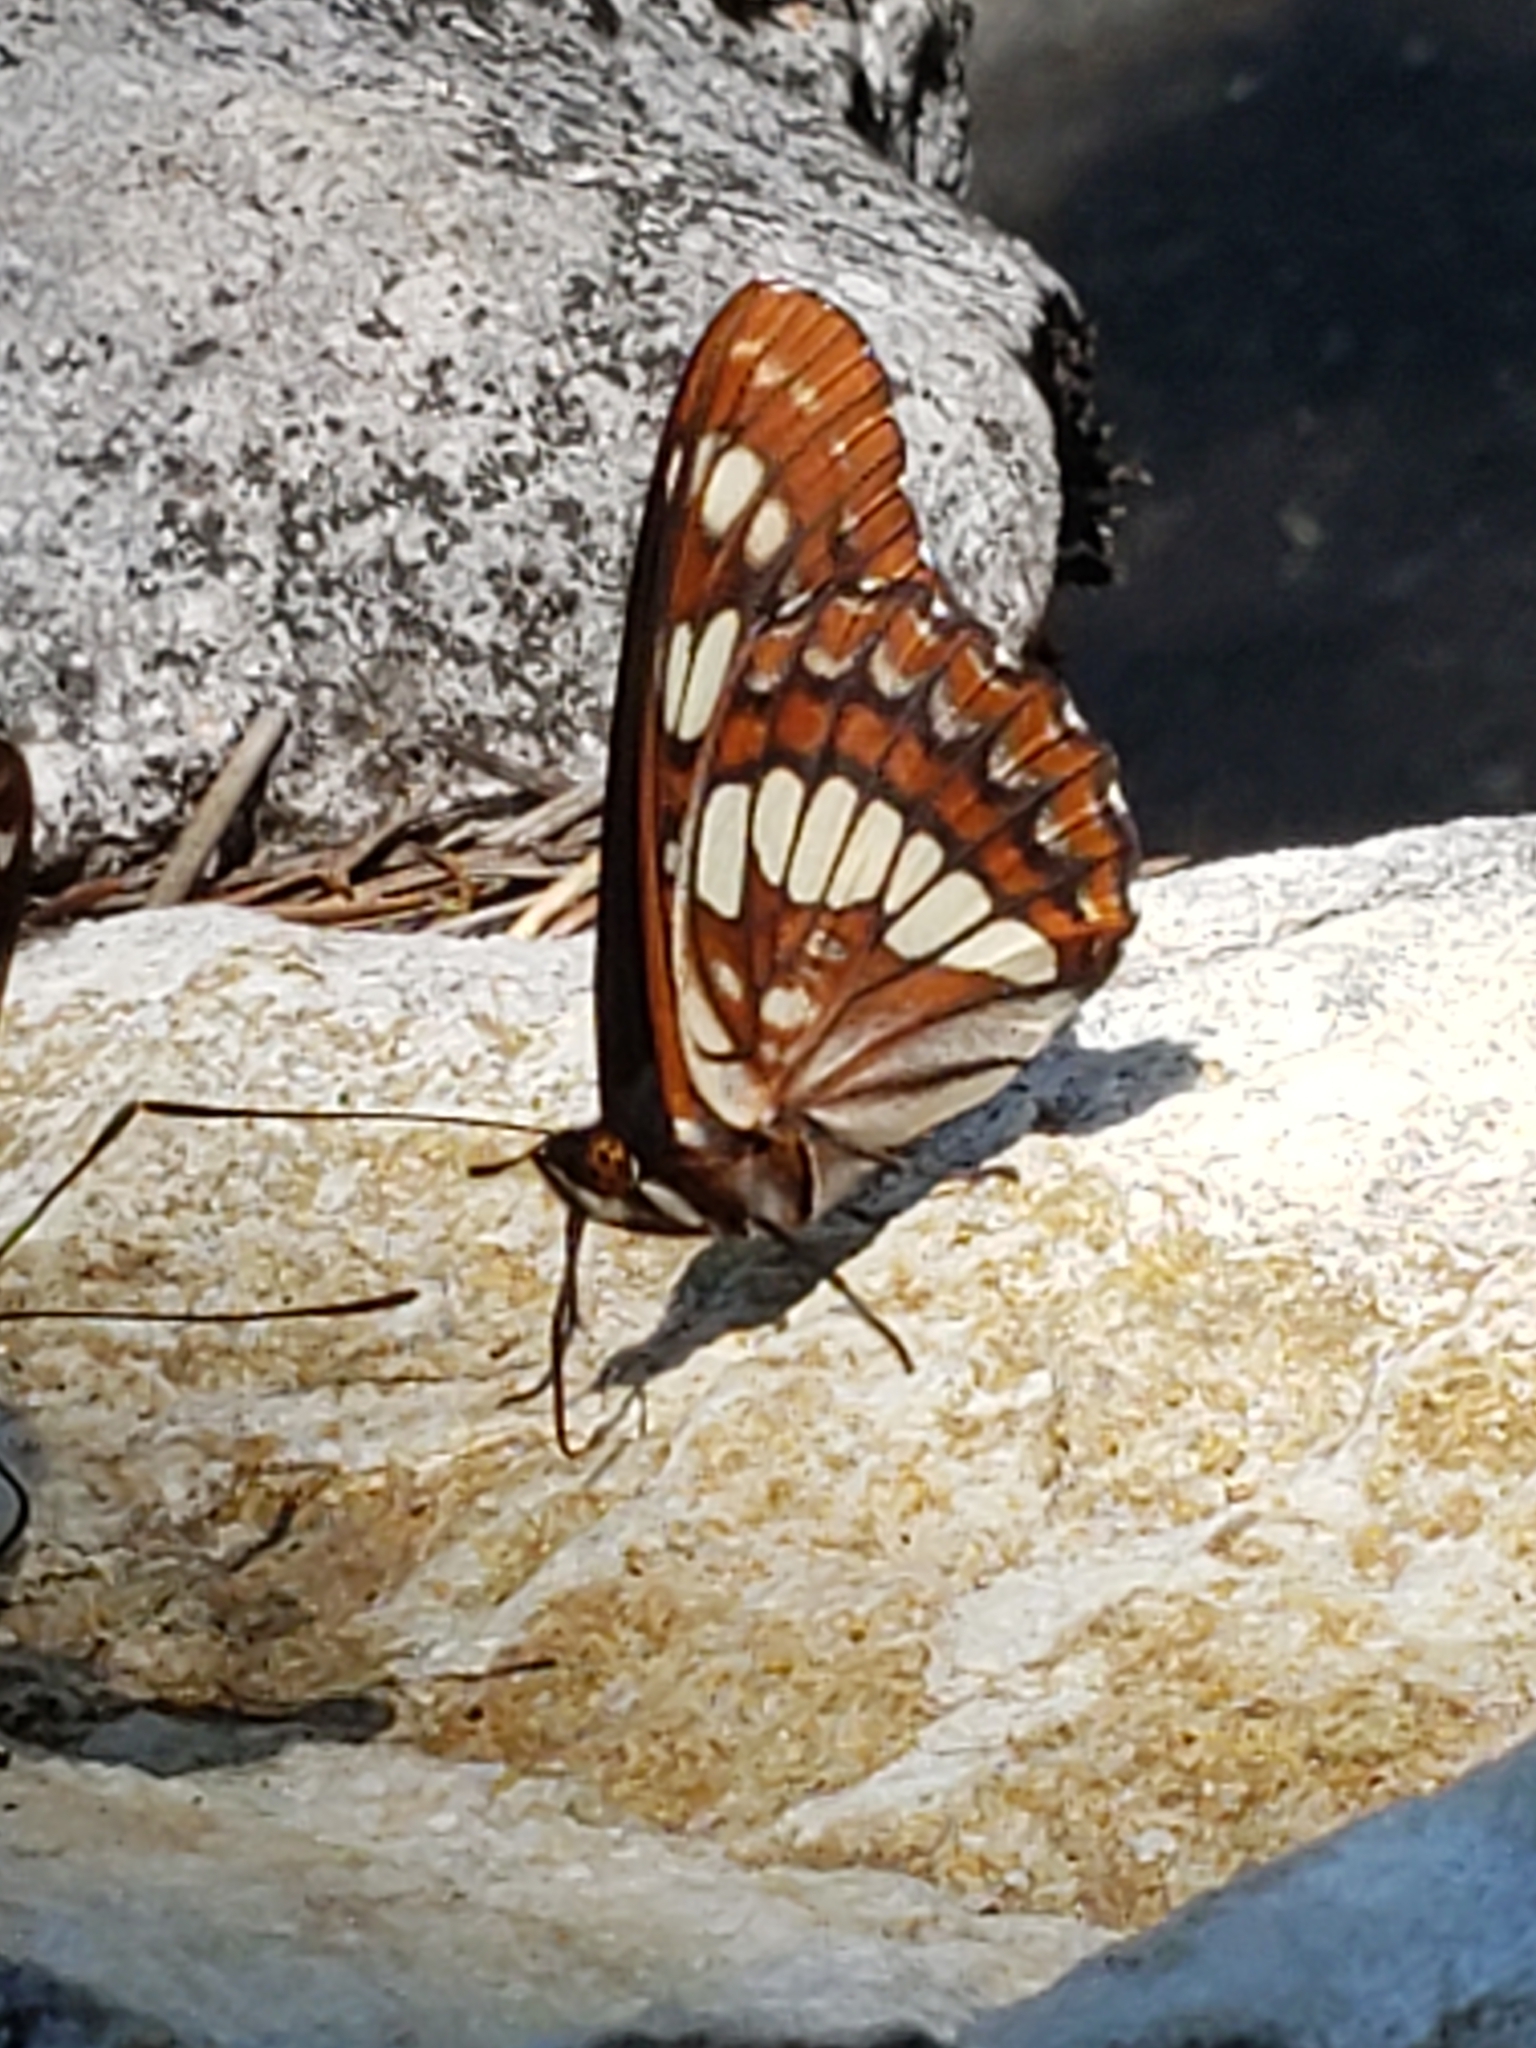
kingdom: Animalia
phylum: Arthropoda
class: Insecta
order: Lepidoptera
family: Nymphalidae
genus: Limenitis
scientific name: Limenitis lorquini
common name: Lorquin's admiral
